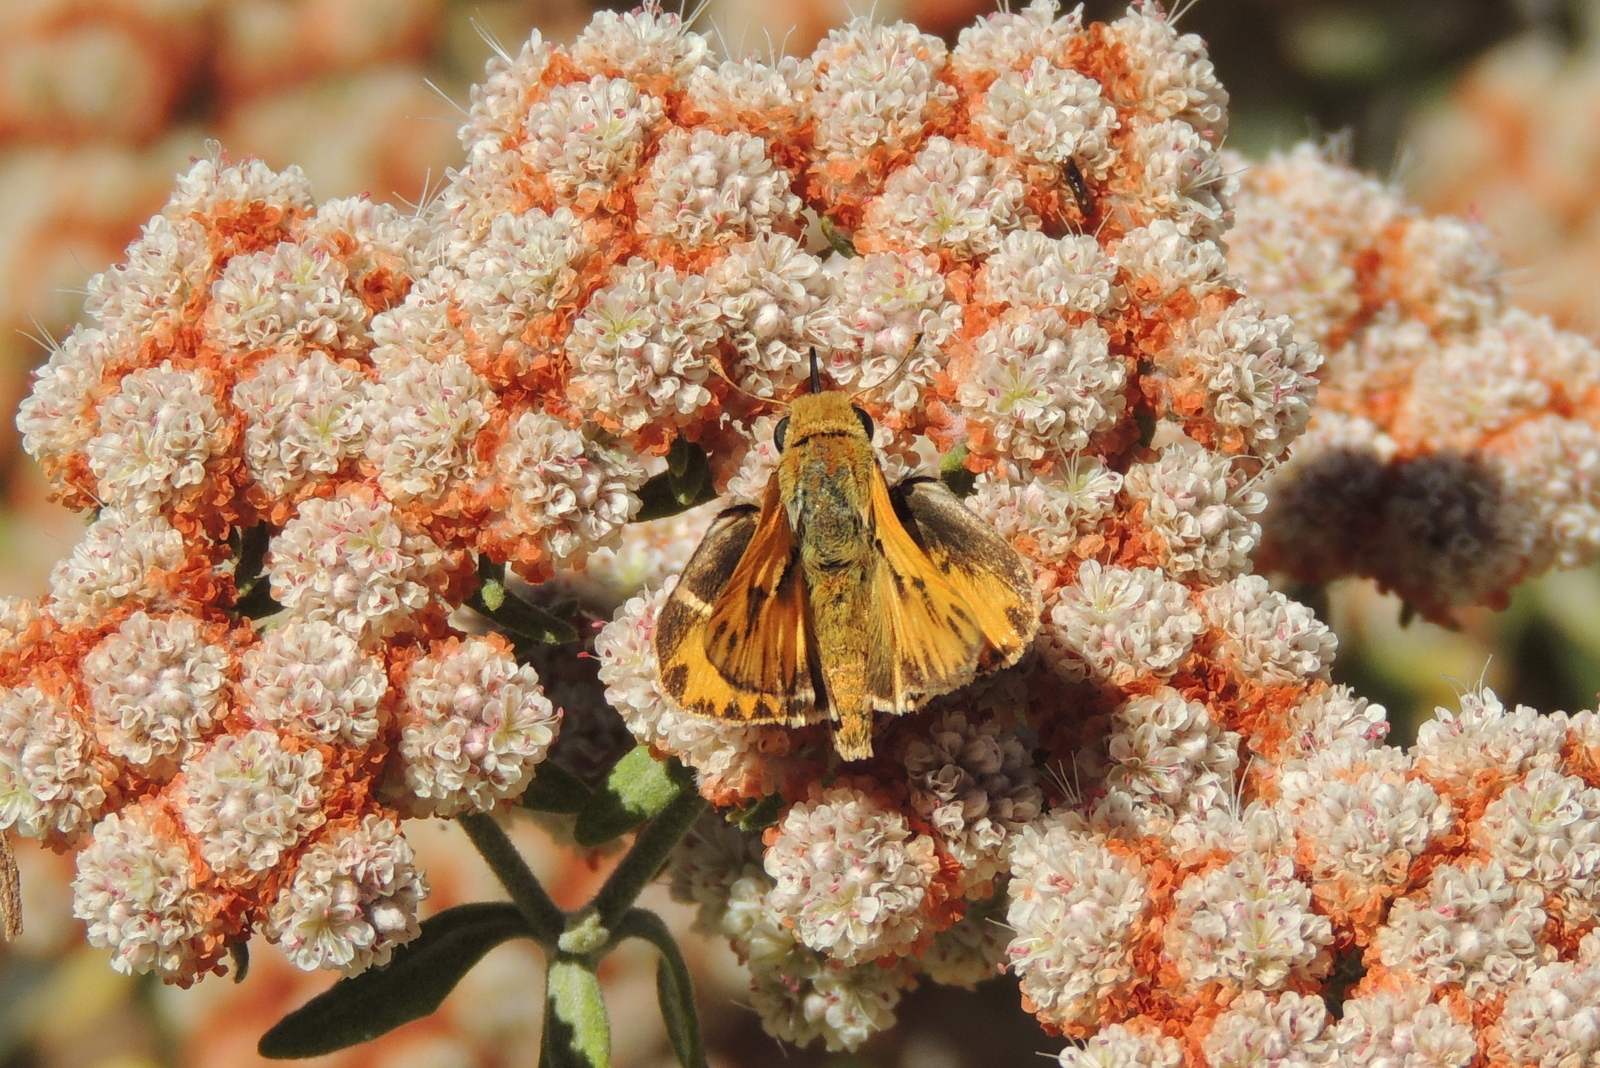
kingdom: Animalia
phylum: Arthropoda
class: Insecta
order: Lepidoptera
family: Hesperiidae
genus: Hylephila
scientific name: Hylephila phyleus
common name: Fiery skipper
